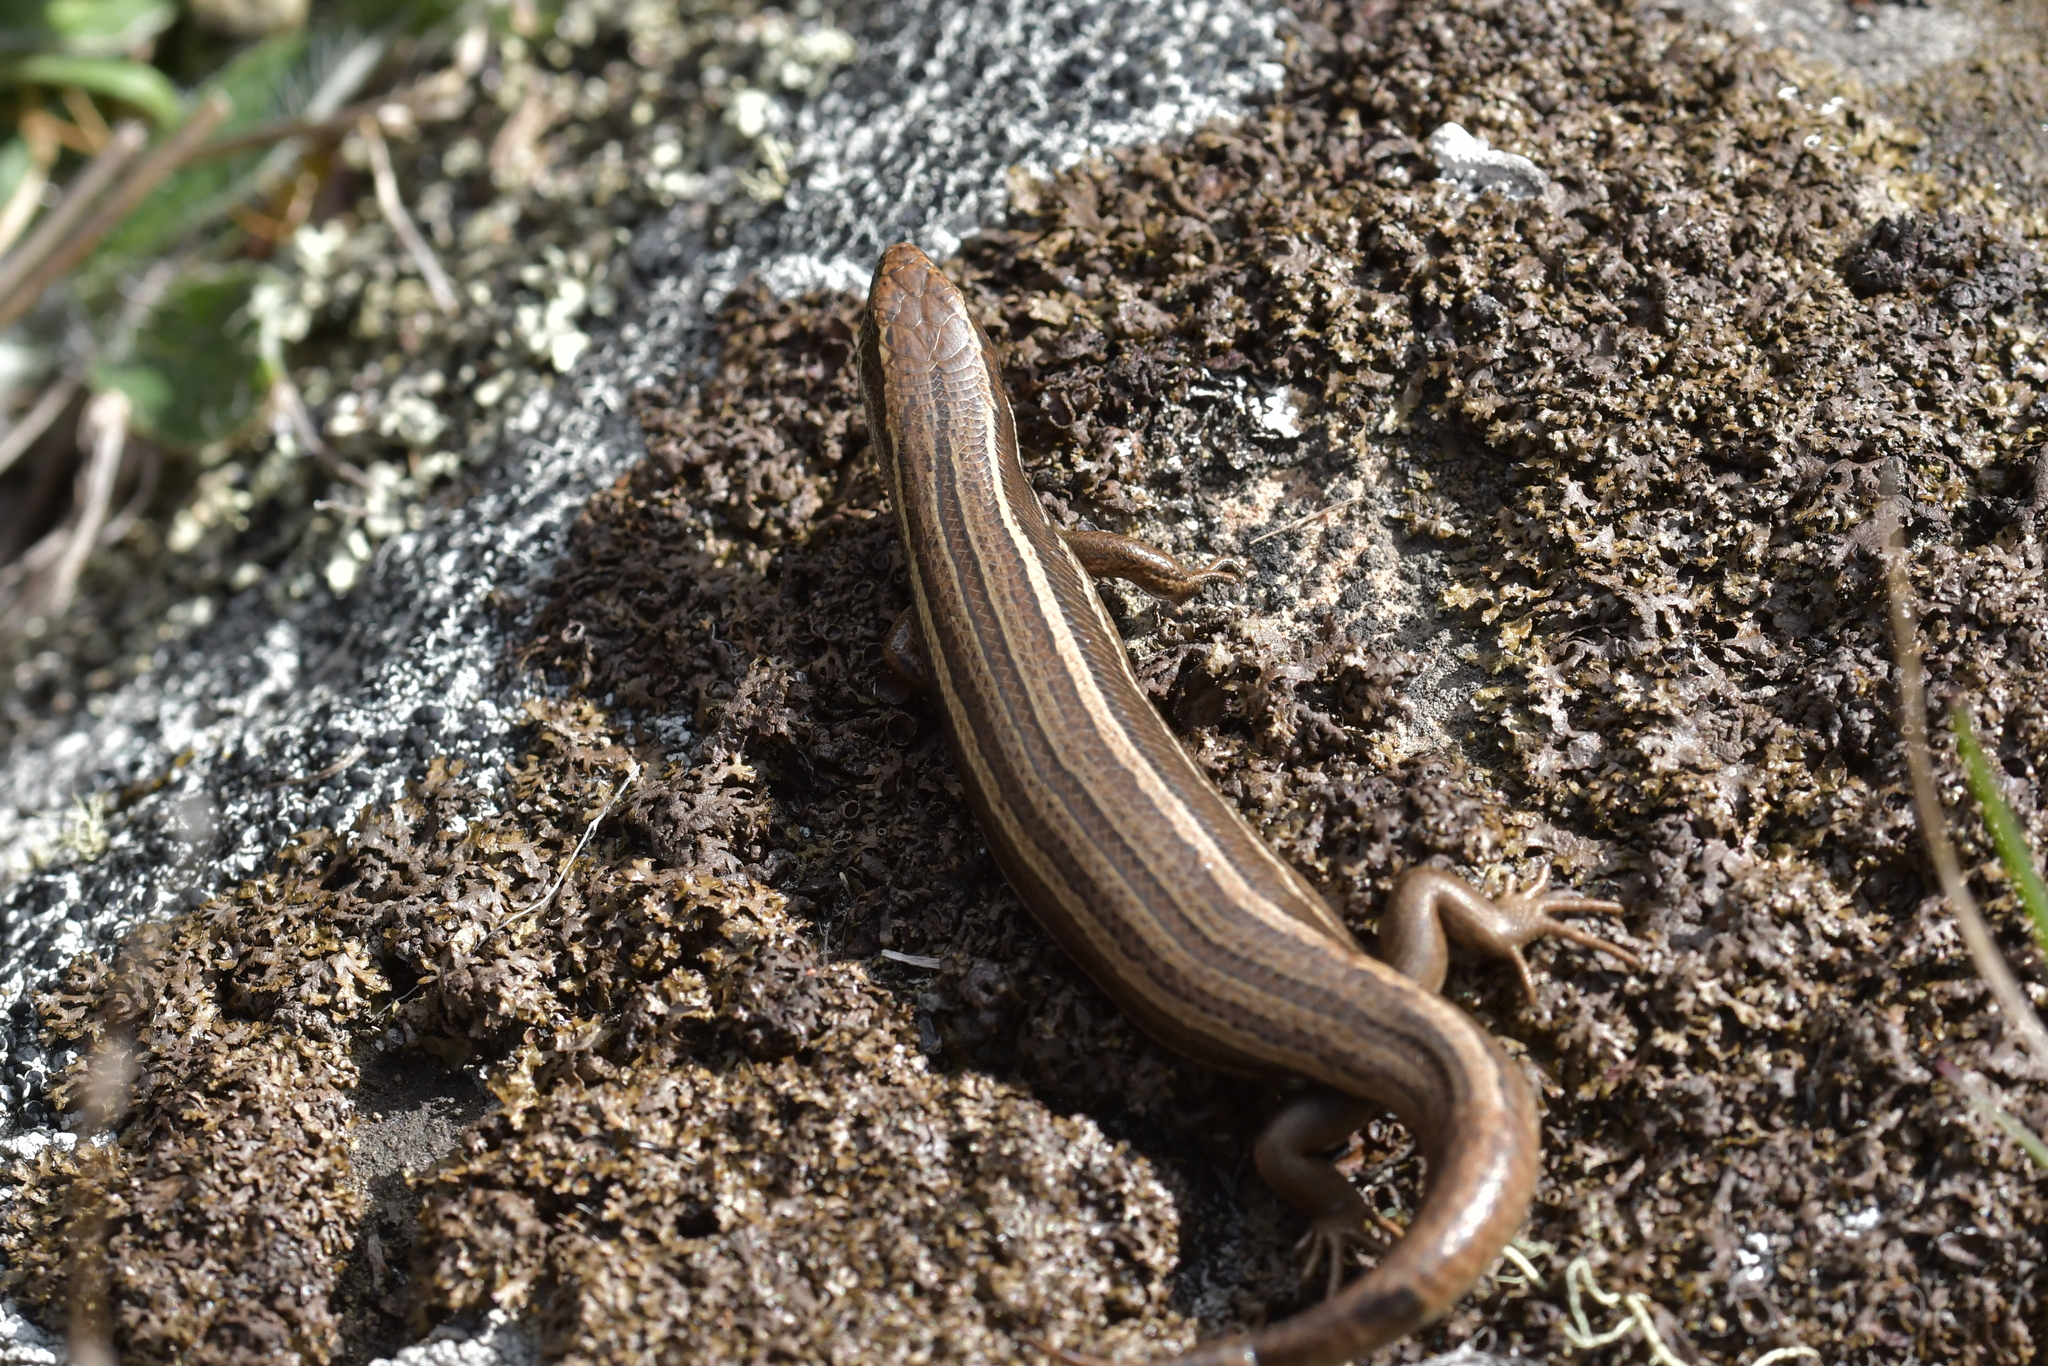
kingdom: Animalia
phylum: Chordata
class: Squamata
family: Scincidae
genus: Oligosoma
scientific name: Oligosoma polychroma
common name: Common new zealand skink
